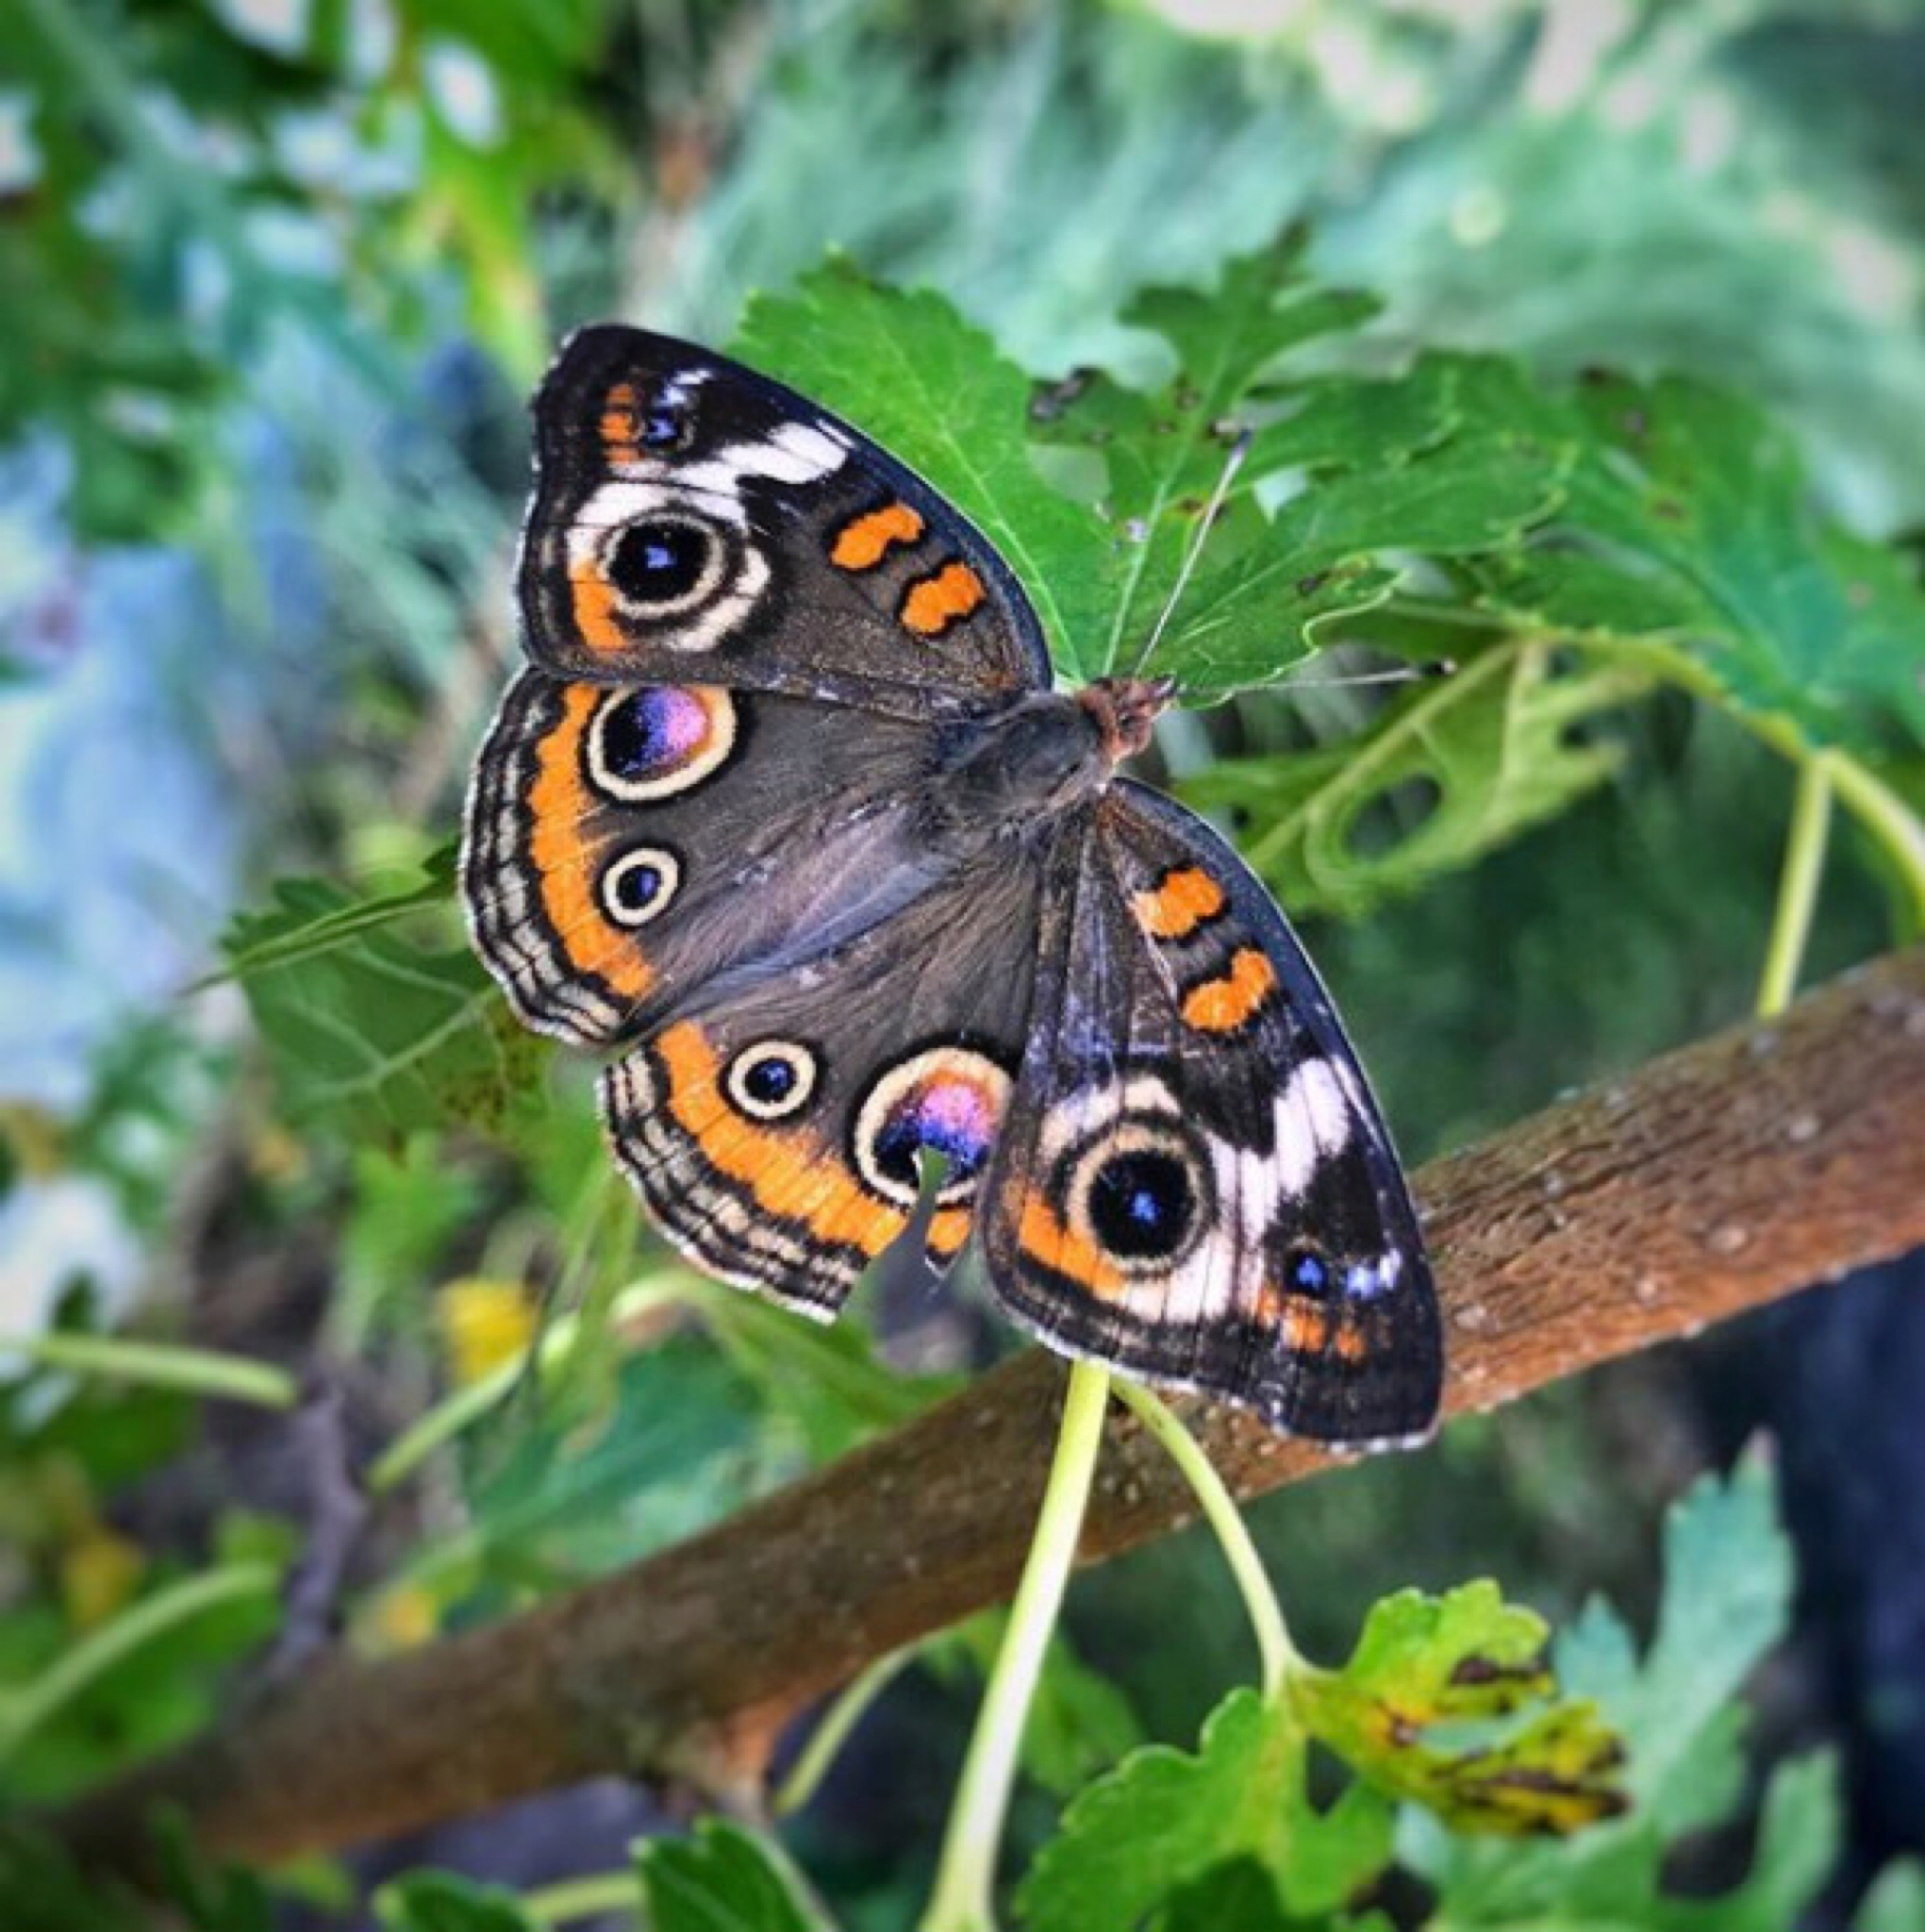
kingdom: Animalia
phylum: Arthropoda
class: Insecta
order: Lepidoptera
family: Nymphalidae
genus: Junonia
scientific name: Junonia coenia
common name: Common buckeye
